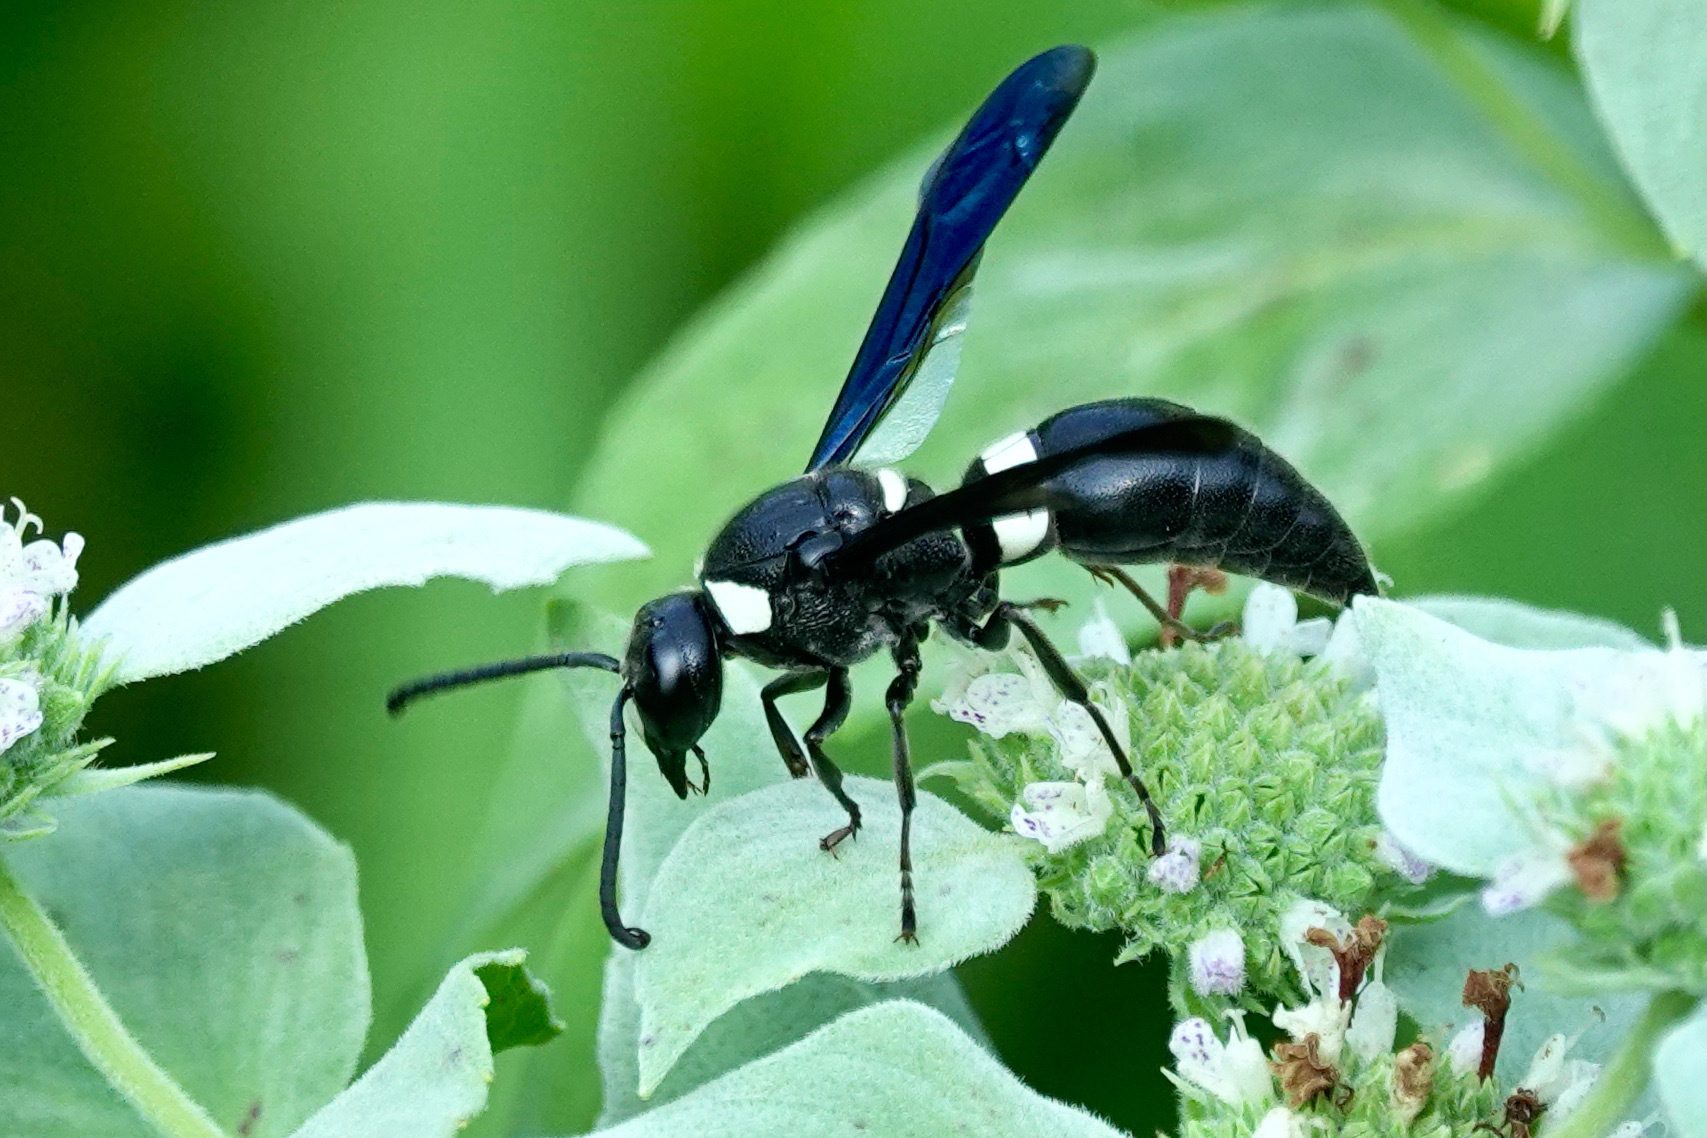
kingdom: Animalia
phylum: Arthropoda
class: Insecta
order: Hymenoptera
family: Eumenidae
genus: Monobia
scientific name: Monobia quadridens
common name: Four-toothed mason wasp
